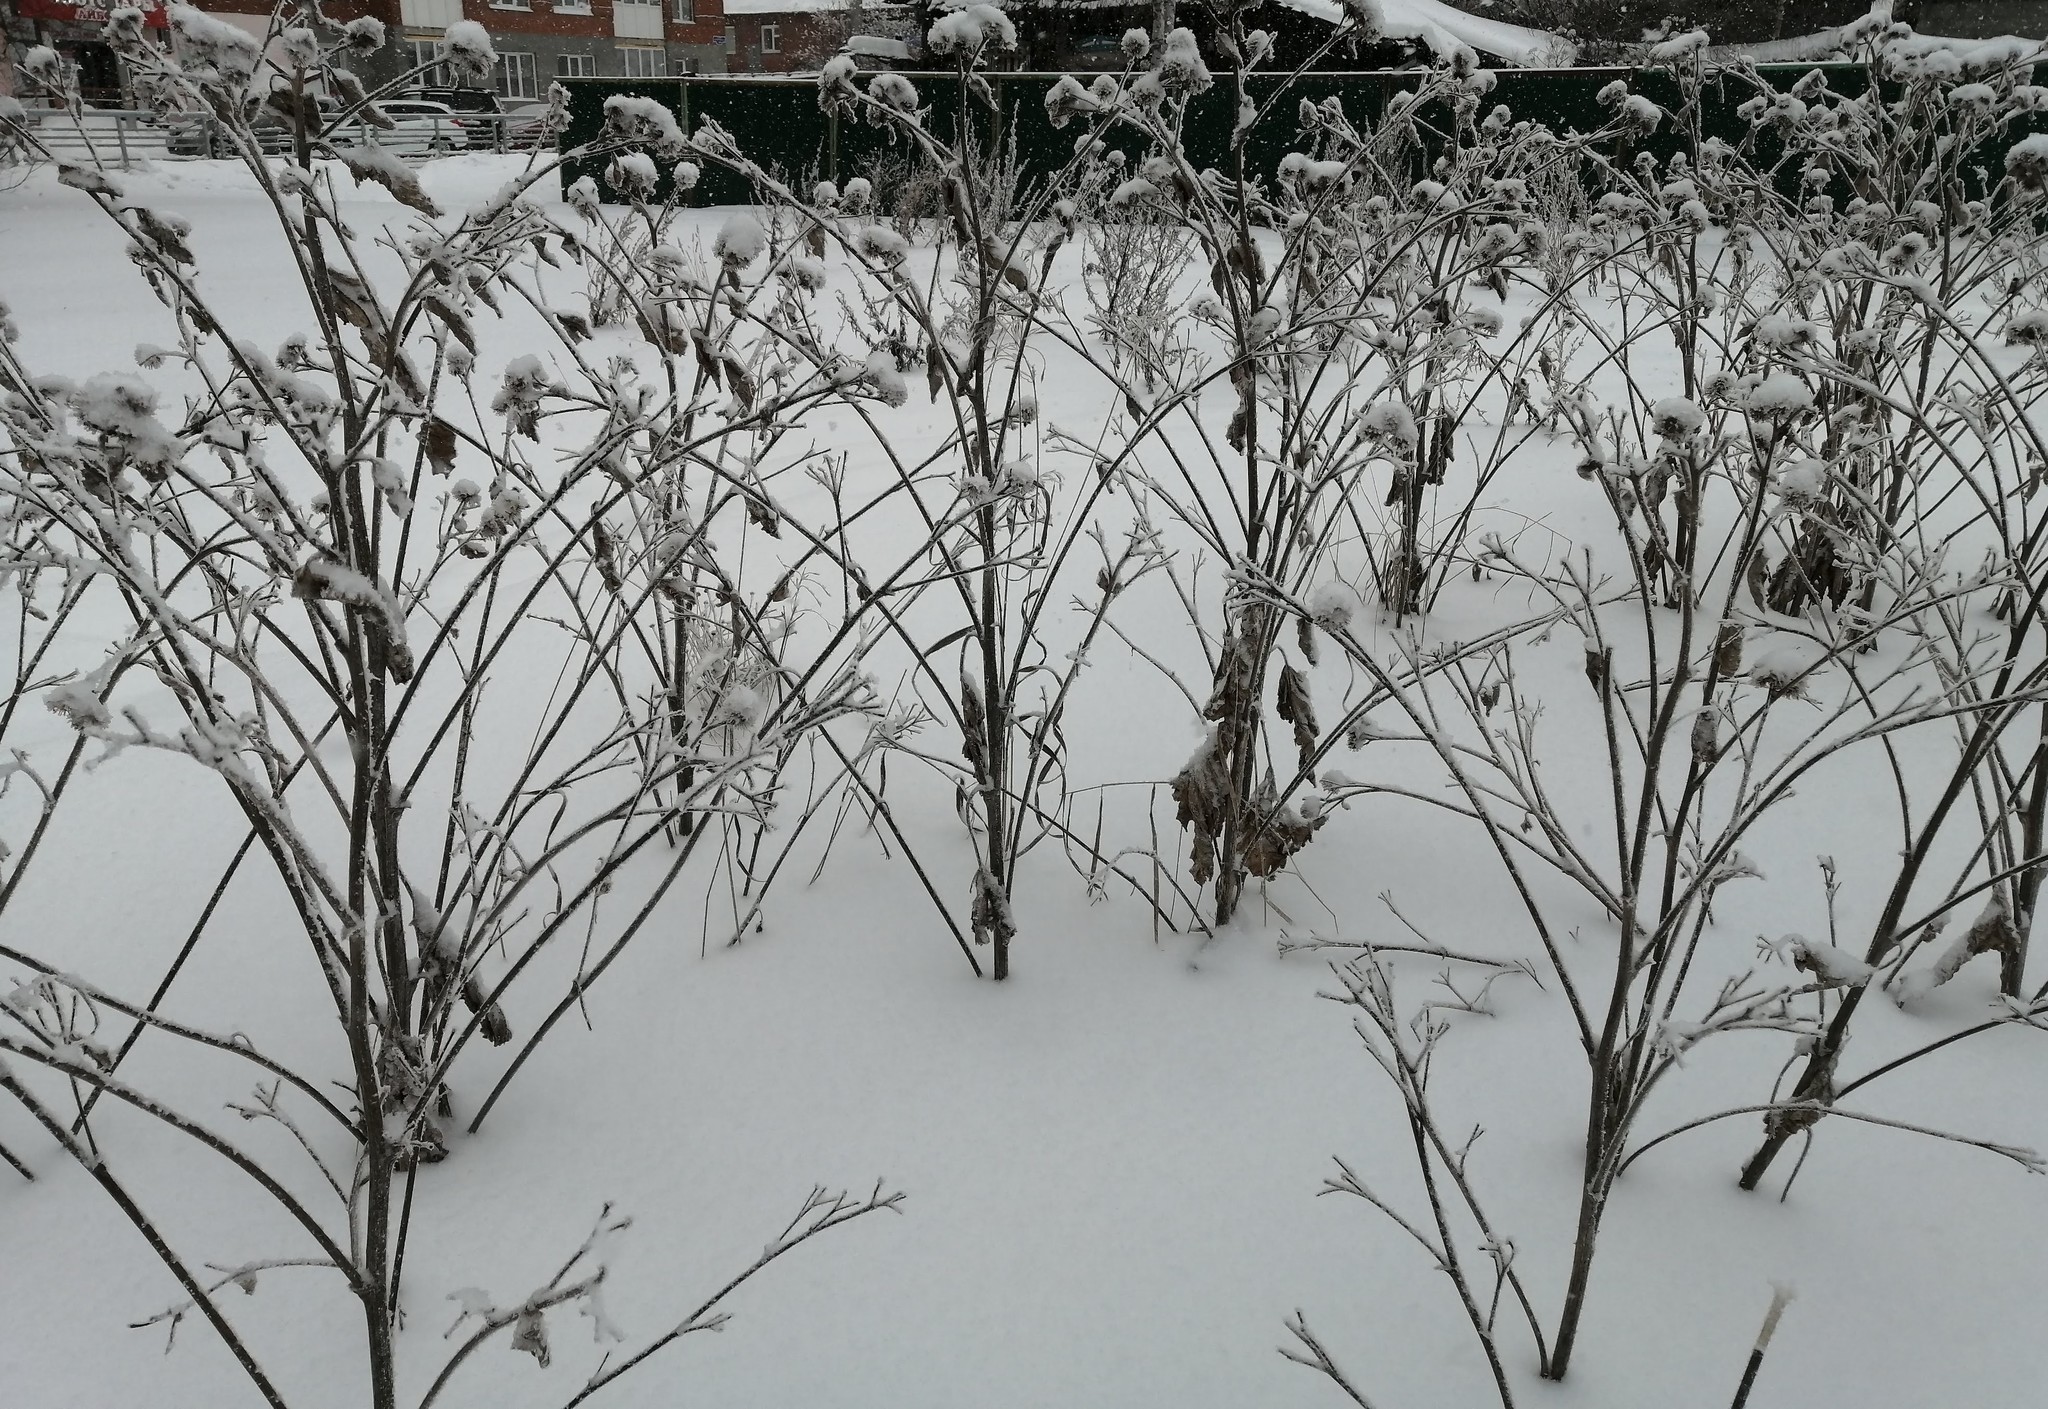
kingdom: Plantae
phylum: Tracheophyta
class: Magnoliopsida
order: Asterales
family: Asteraceae
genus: Arctium
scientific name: Arctium tomentosum
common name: Woolly burdock
